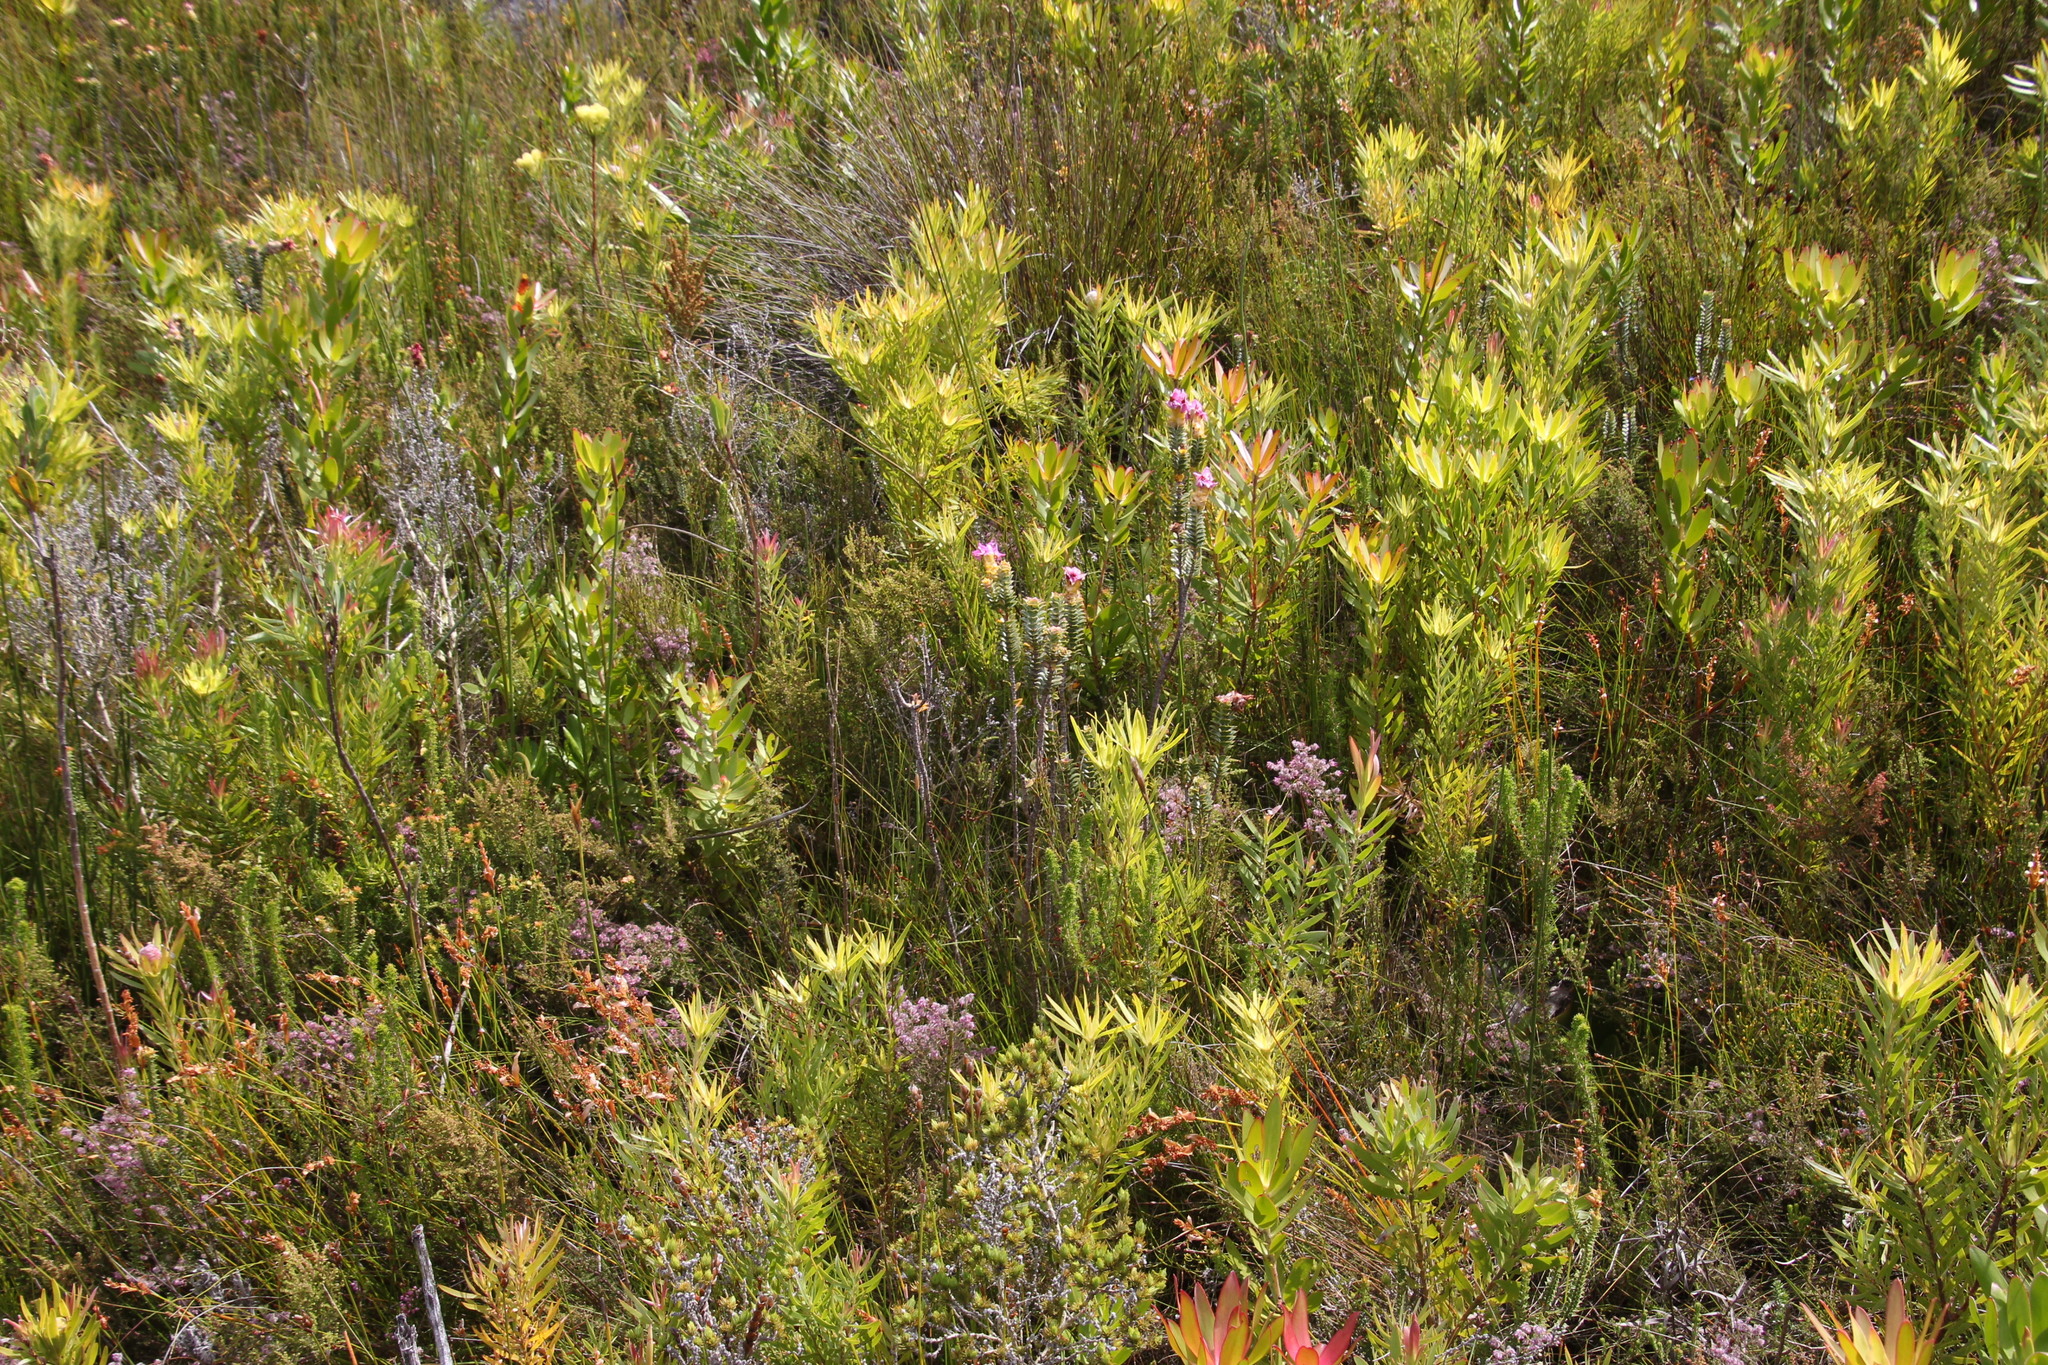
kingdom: Plantae
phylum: Tracheophyta
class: Magnoliopsida
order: Proteales
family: Proteaceae
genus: Leucadendron
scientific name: Leucadendron xanthoconus
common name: Sickle-leaf conebush
